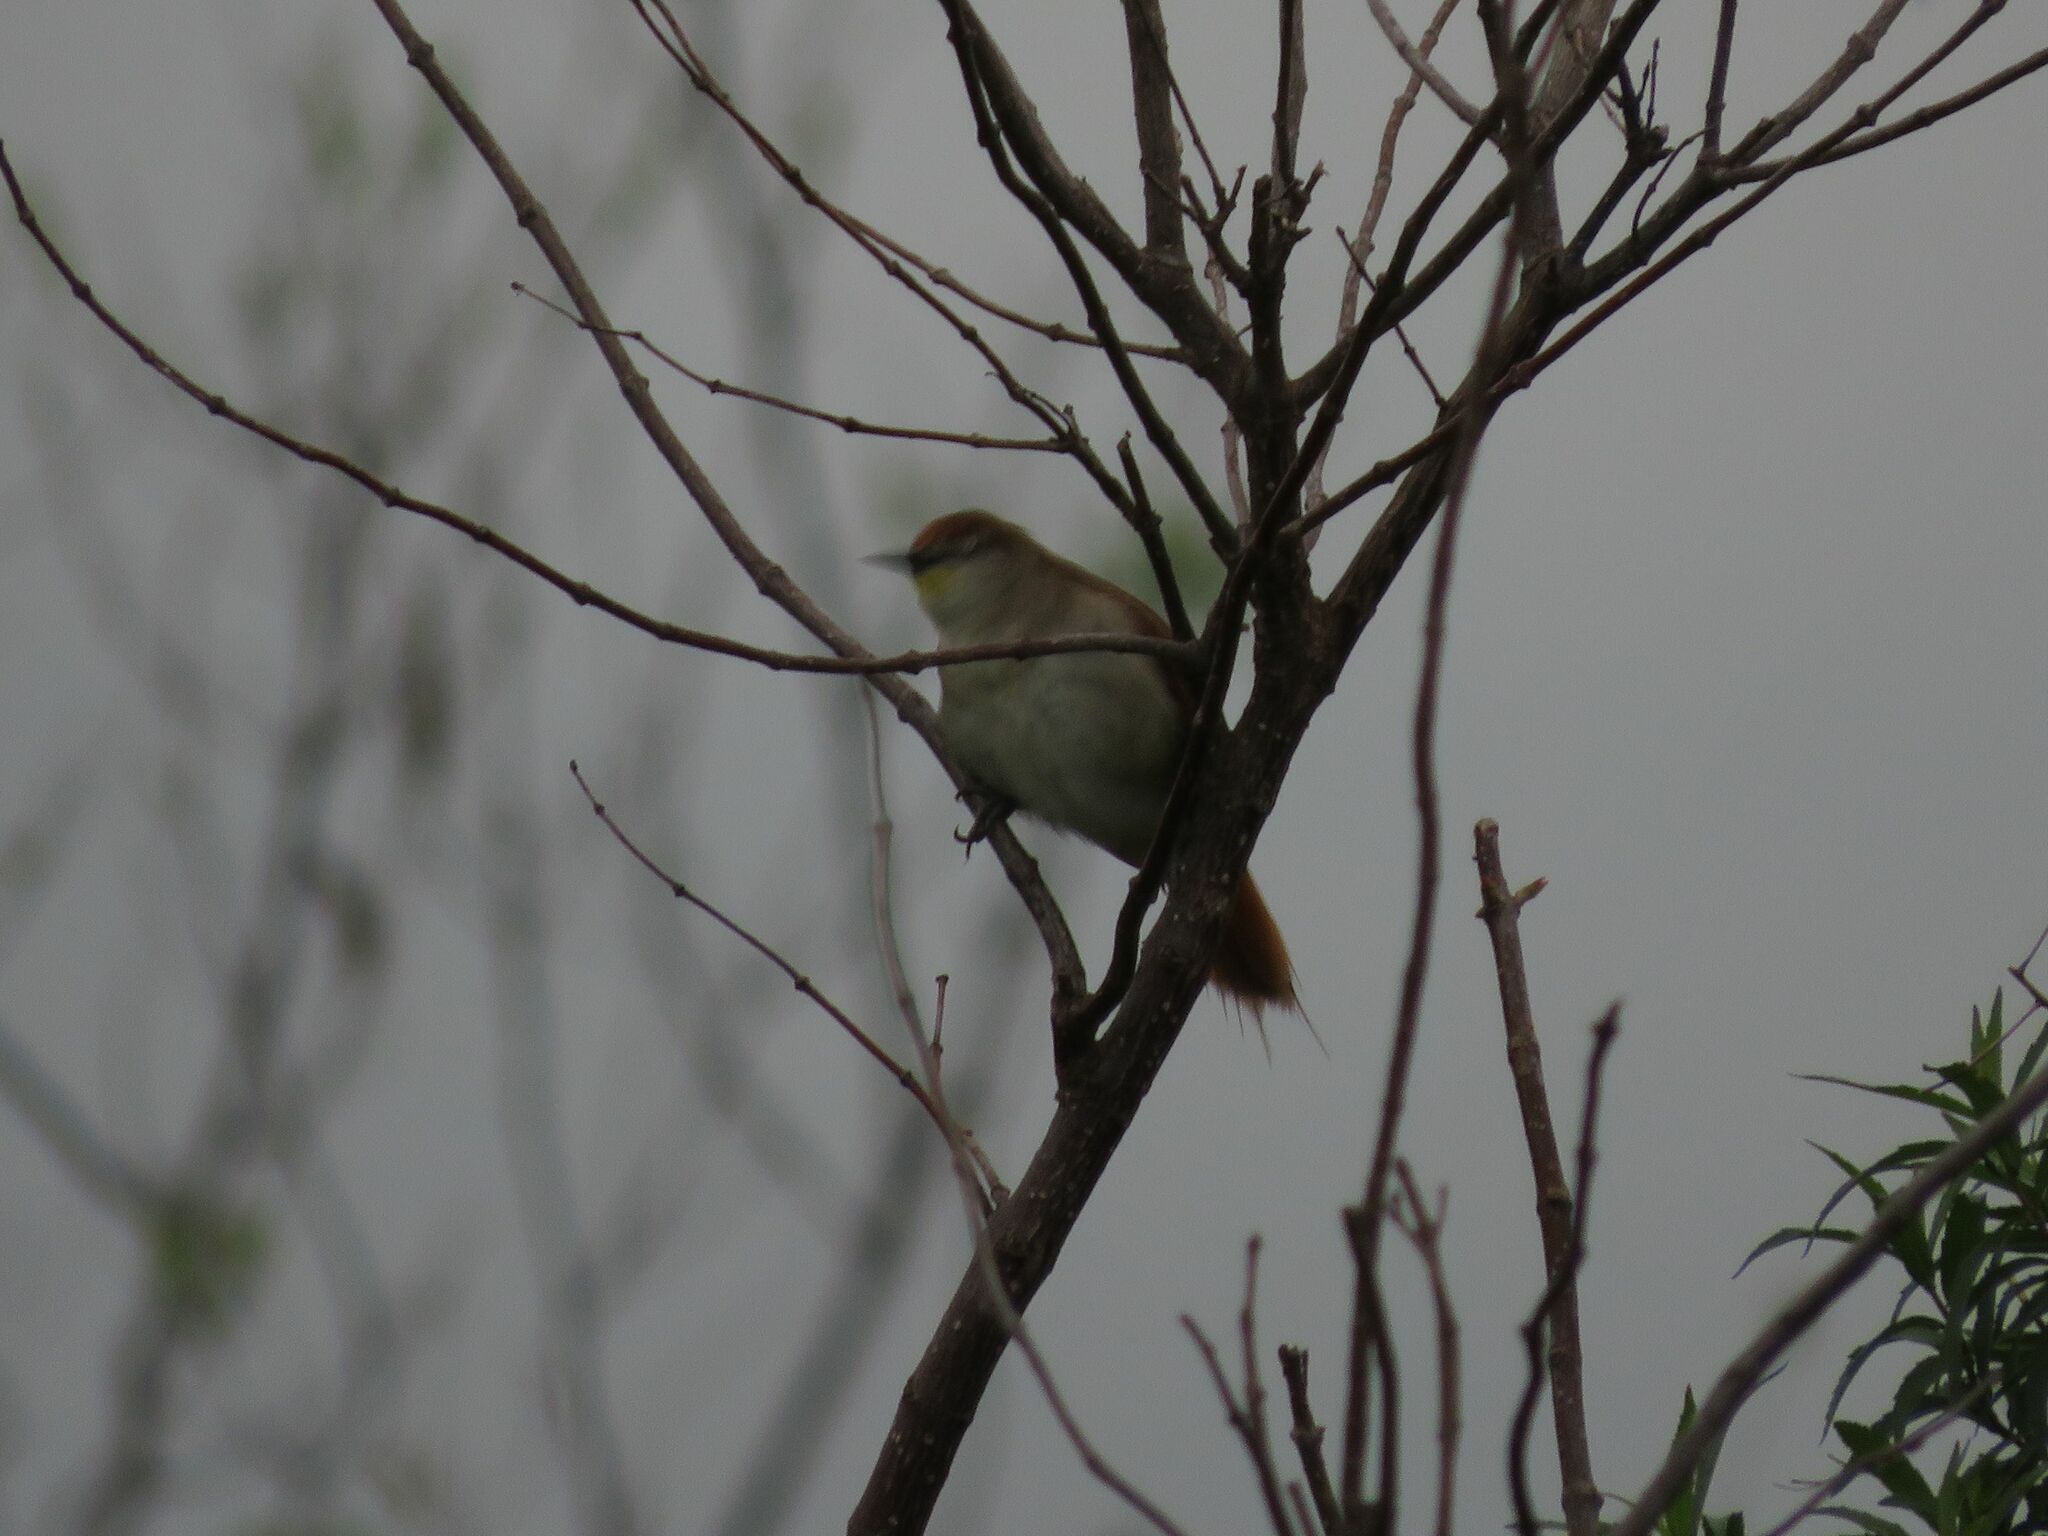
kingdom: Animalia
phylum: Chordata
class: Aves
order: Passeriformes
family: Furnariidae
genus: Certhiaxis
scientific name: Certhiaxis cinnamomeus
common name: Yellow-chinned spinetail
